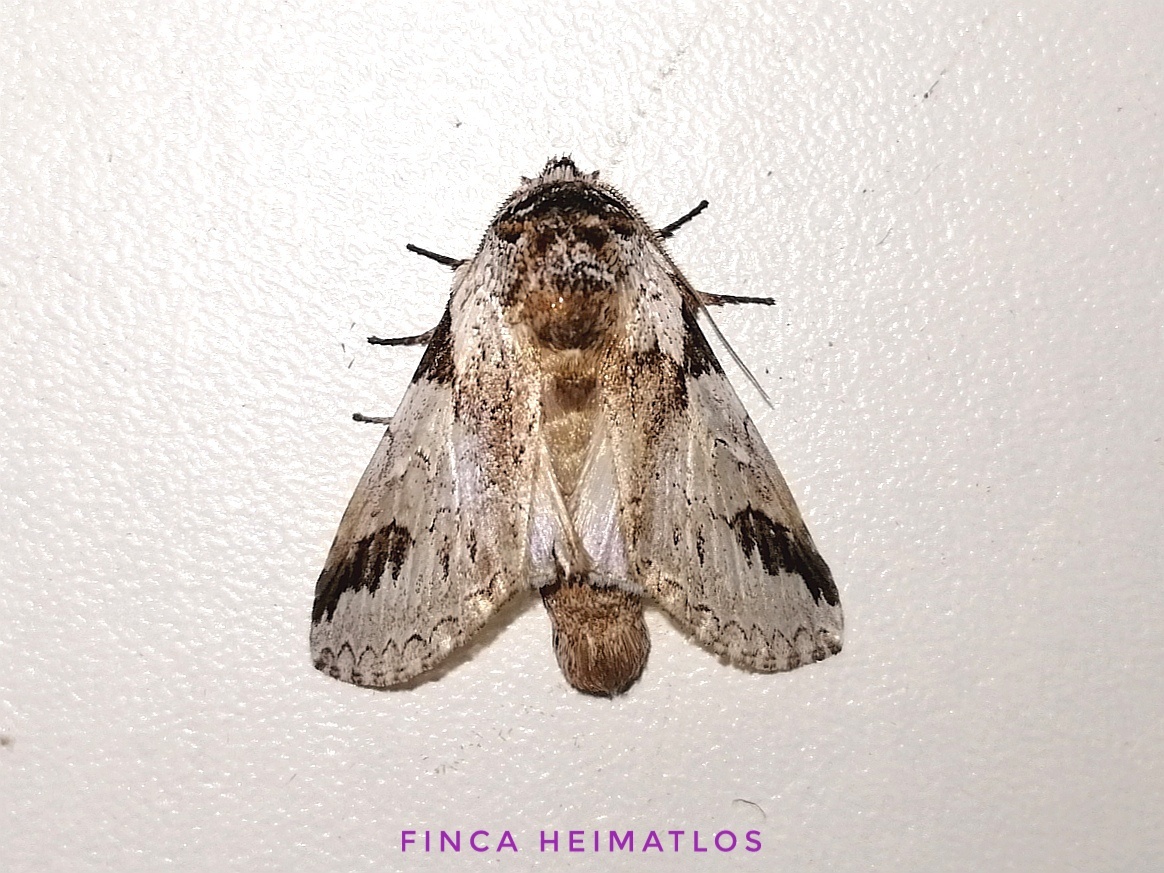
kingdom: Animalia
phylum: Arthropoda
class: Insecta
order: Lepidoptera
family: Notodontidae
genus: Sericochroa
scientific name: Sericochroa lioneli
